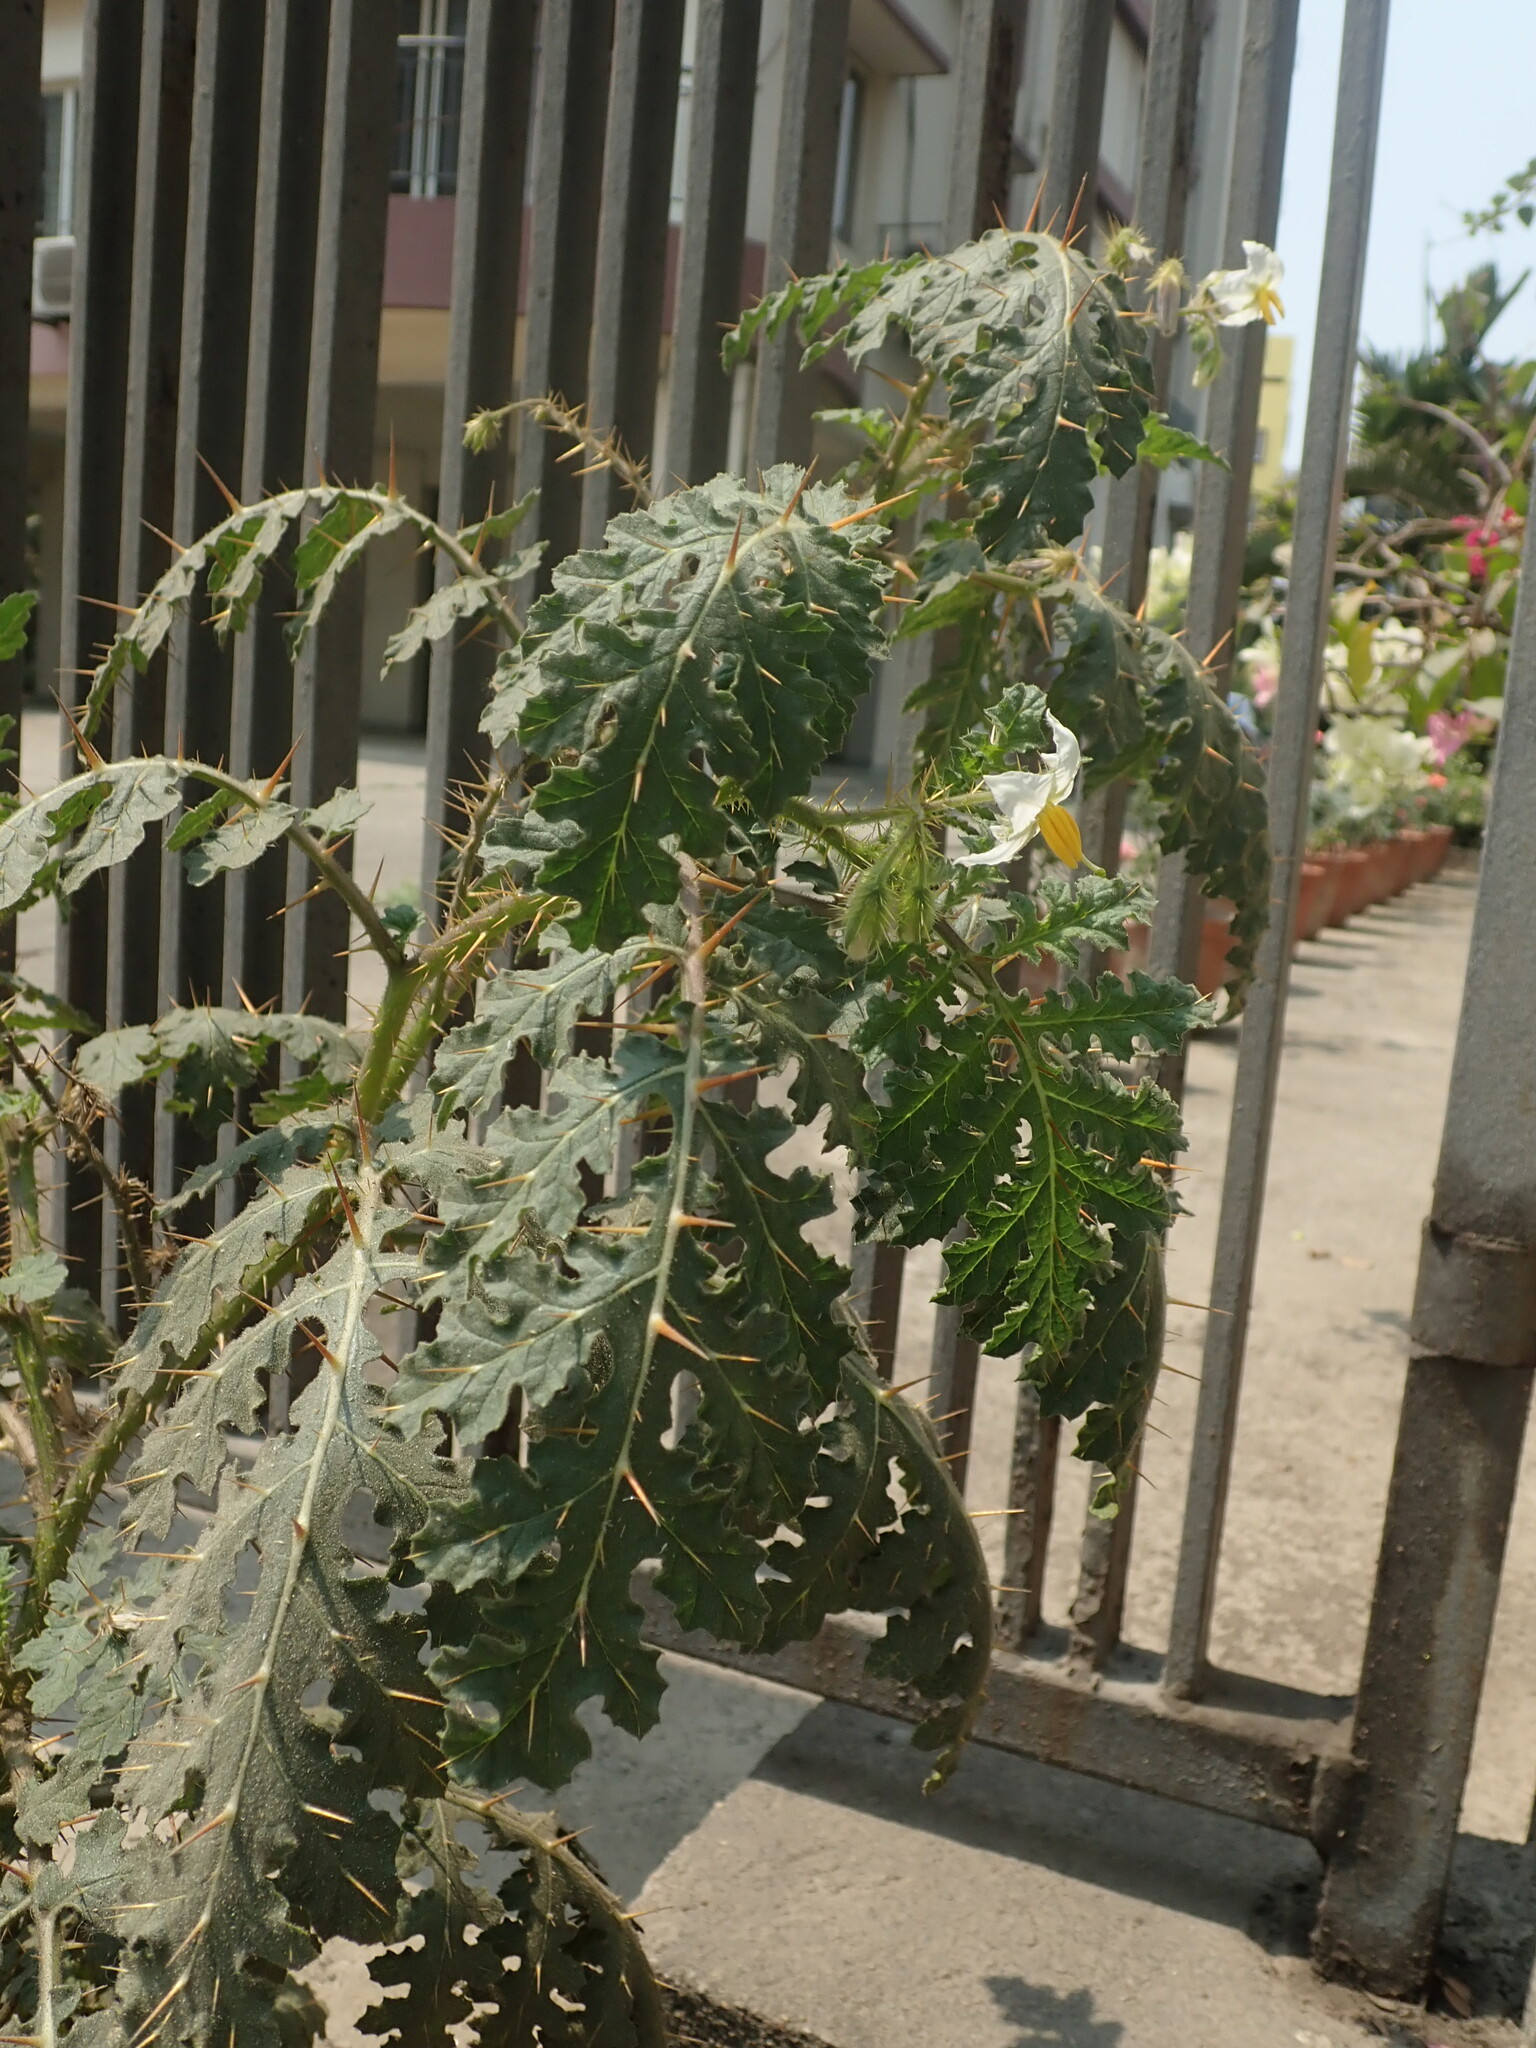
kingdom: Plantae
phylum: Tracheophyta
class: Magnoliopsida
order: Solanales
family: Solanaceae
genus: Solanum
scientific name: Solanum sisymbriifolium
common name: Red buffalo-bur
